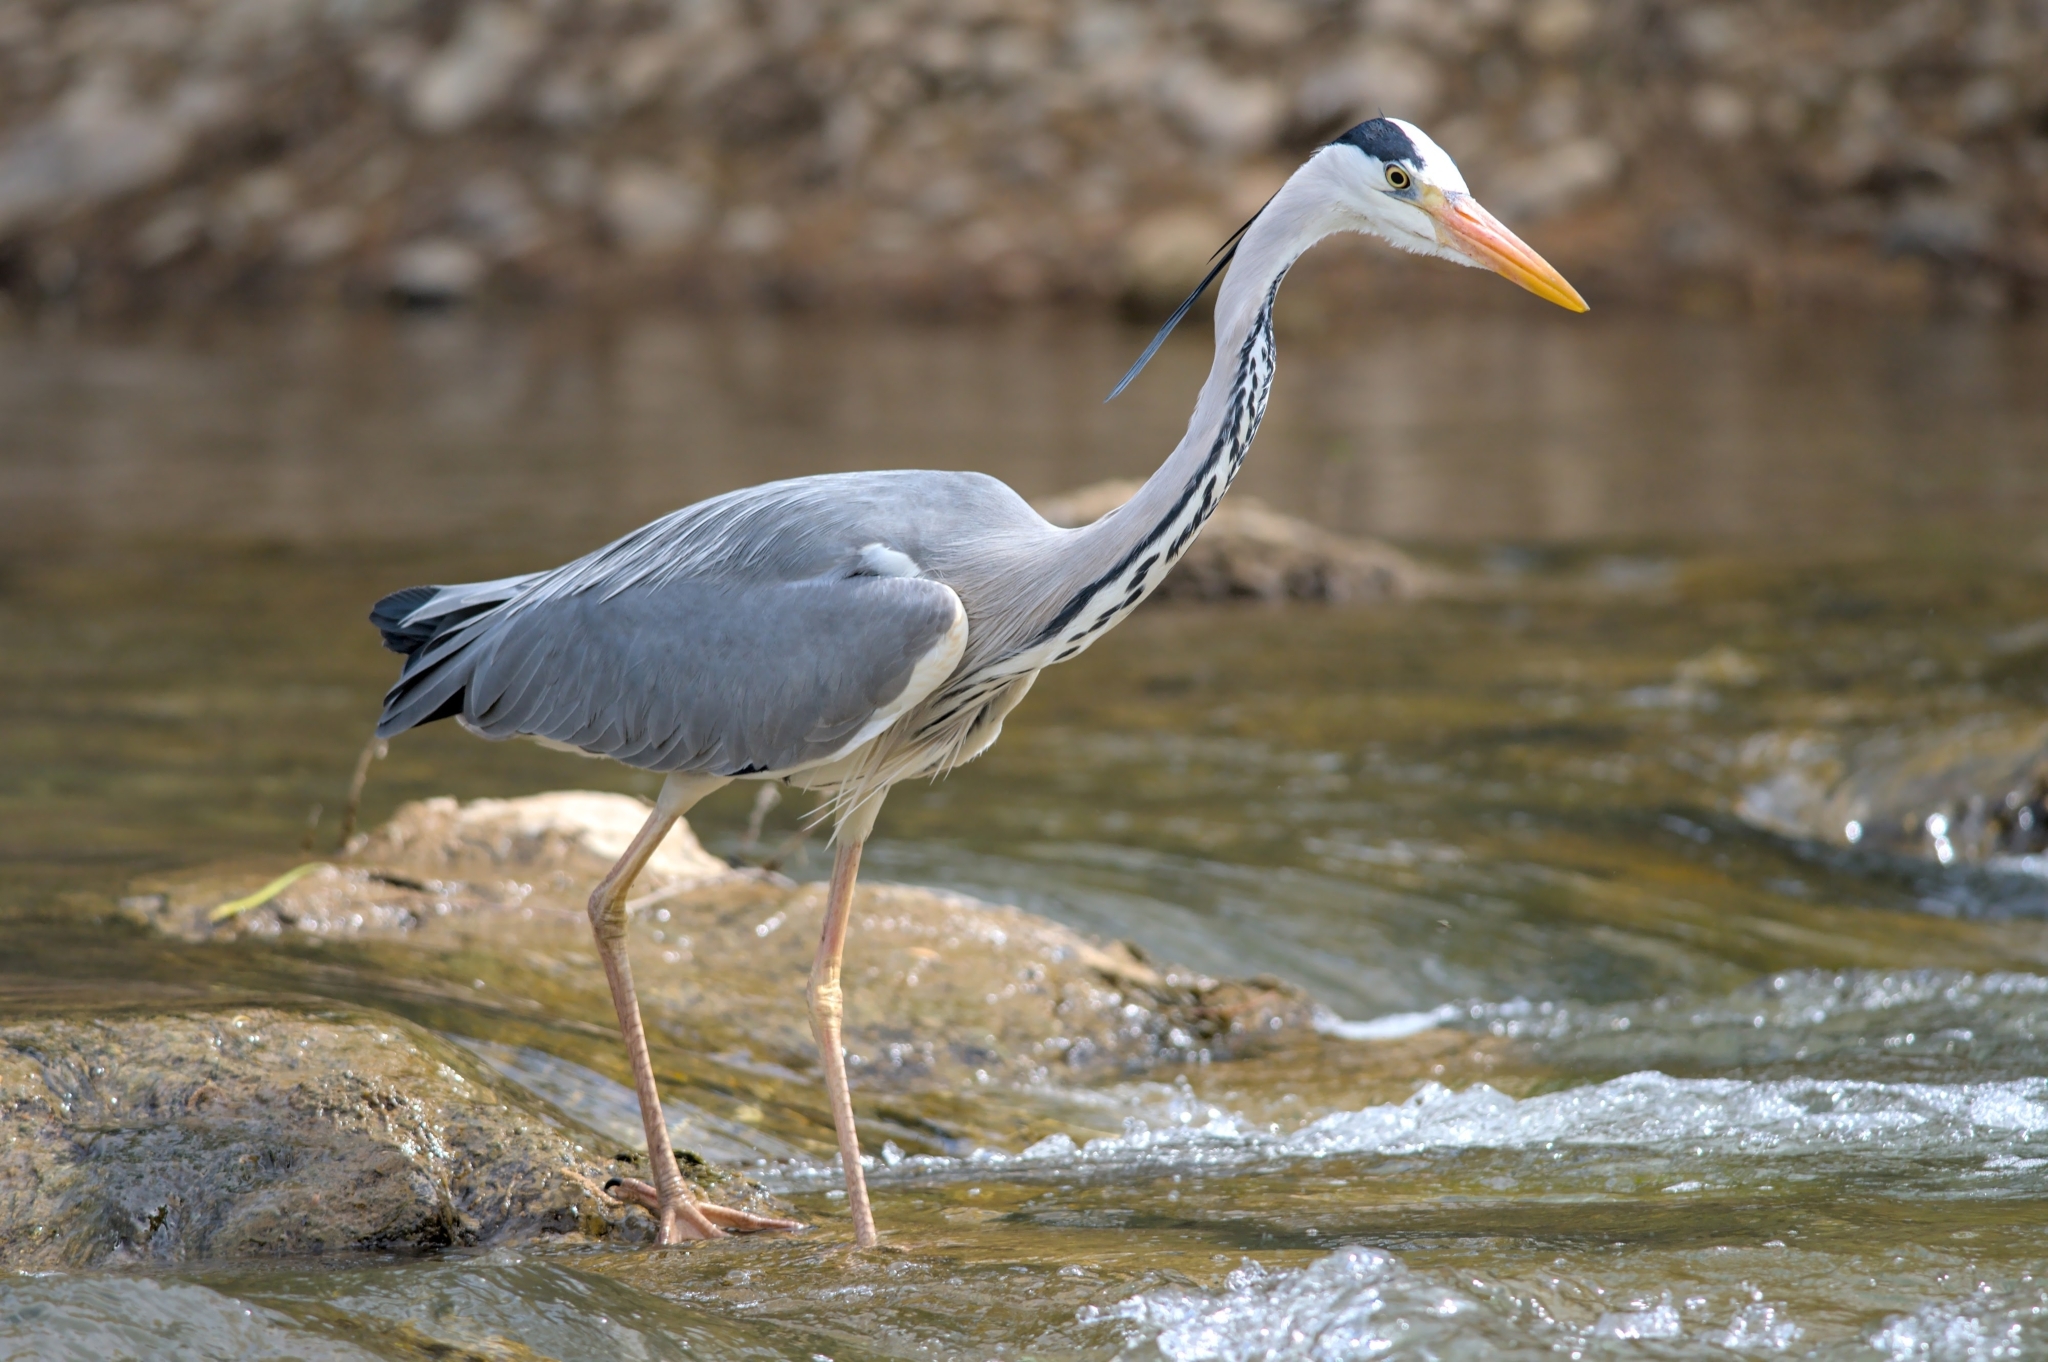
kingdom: Animalia
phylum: Chordata
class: Aves
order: Pelecaniformes
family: Ardeidae
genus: Ardea
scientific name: Ardea cinerea
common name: Grey heron
